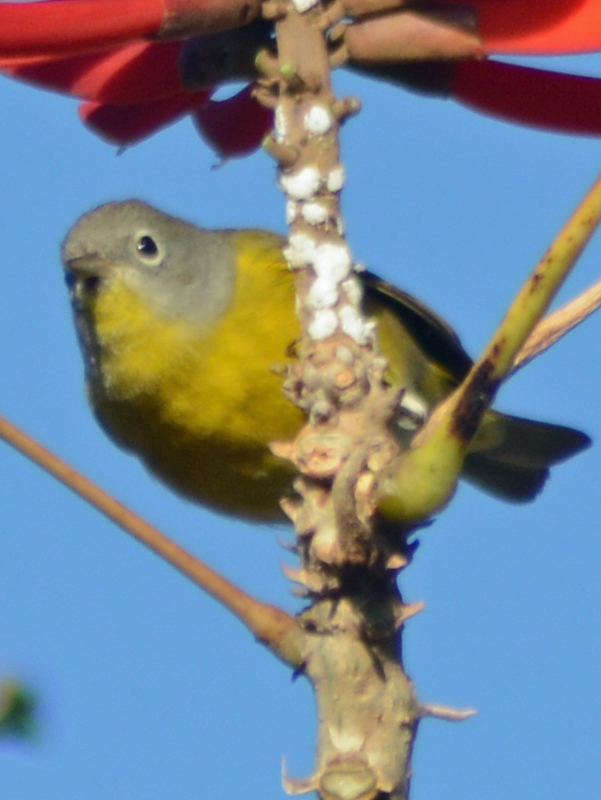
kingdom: Animalia
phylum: Chordata
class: Aves
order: Passeriformes
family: Parulidae
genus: Leiothlypis
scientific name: Leiothlypis ruficapilla
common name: Nashville warbler
